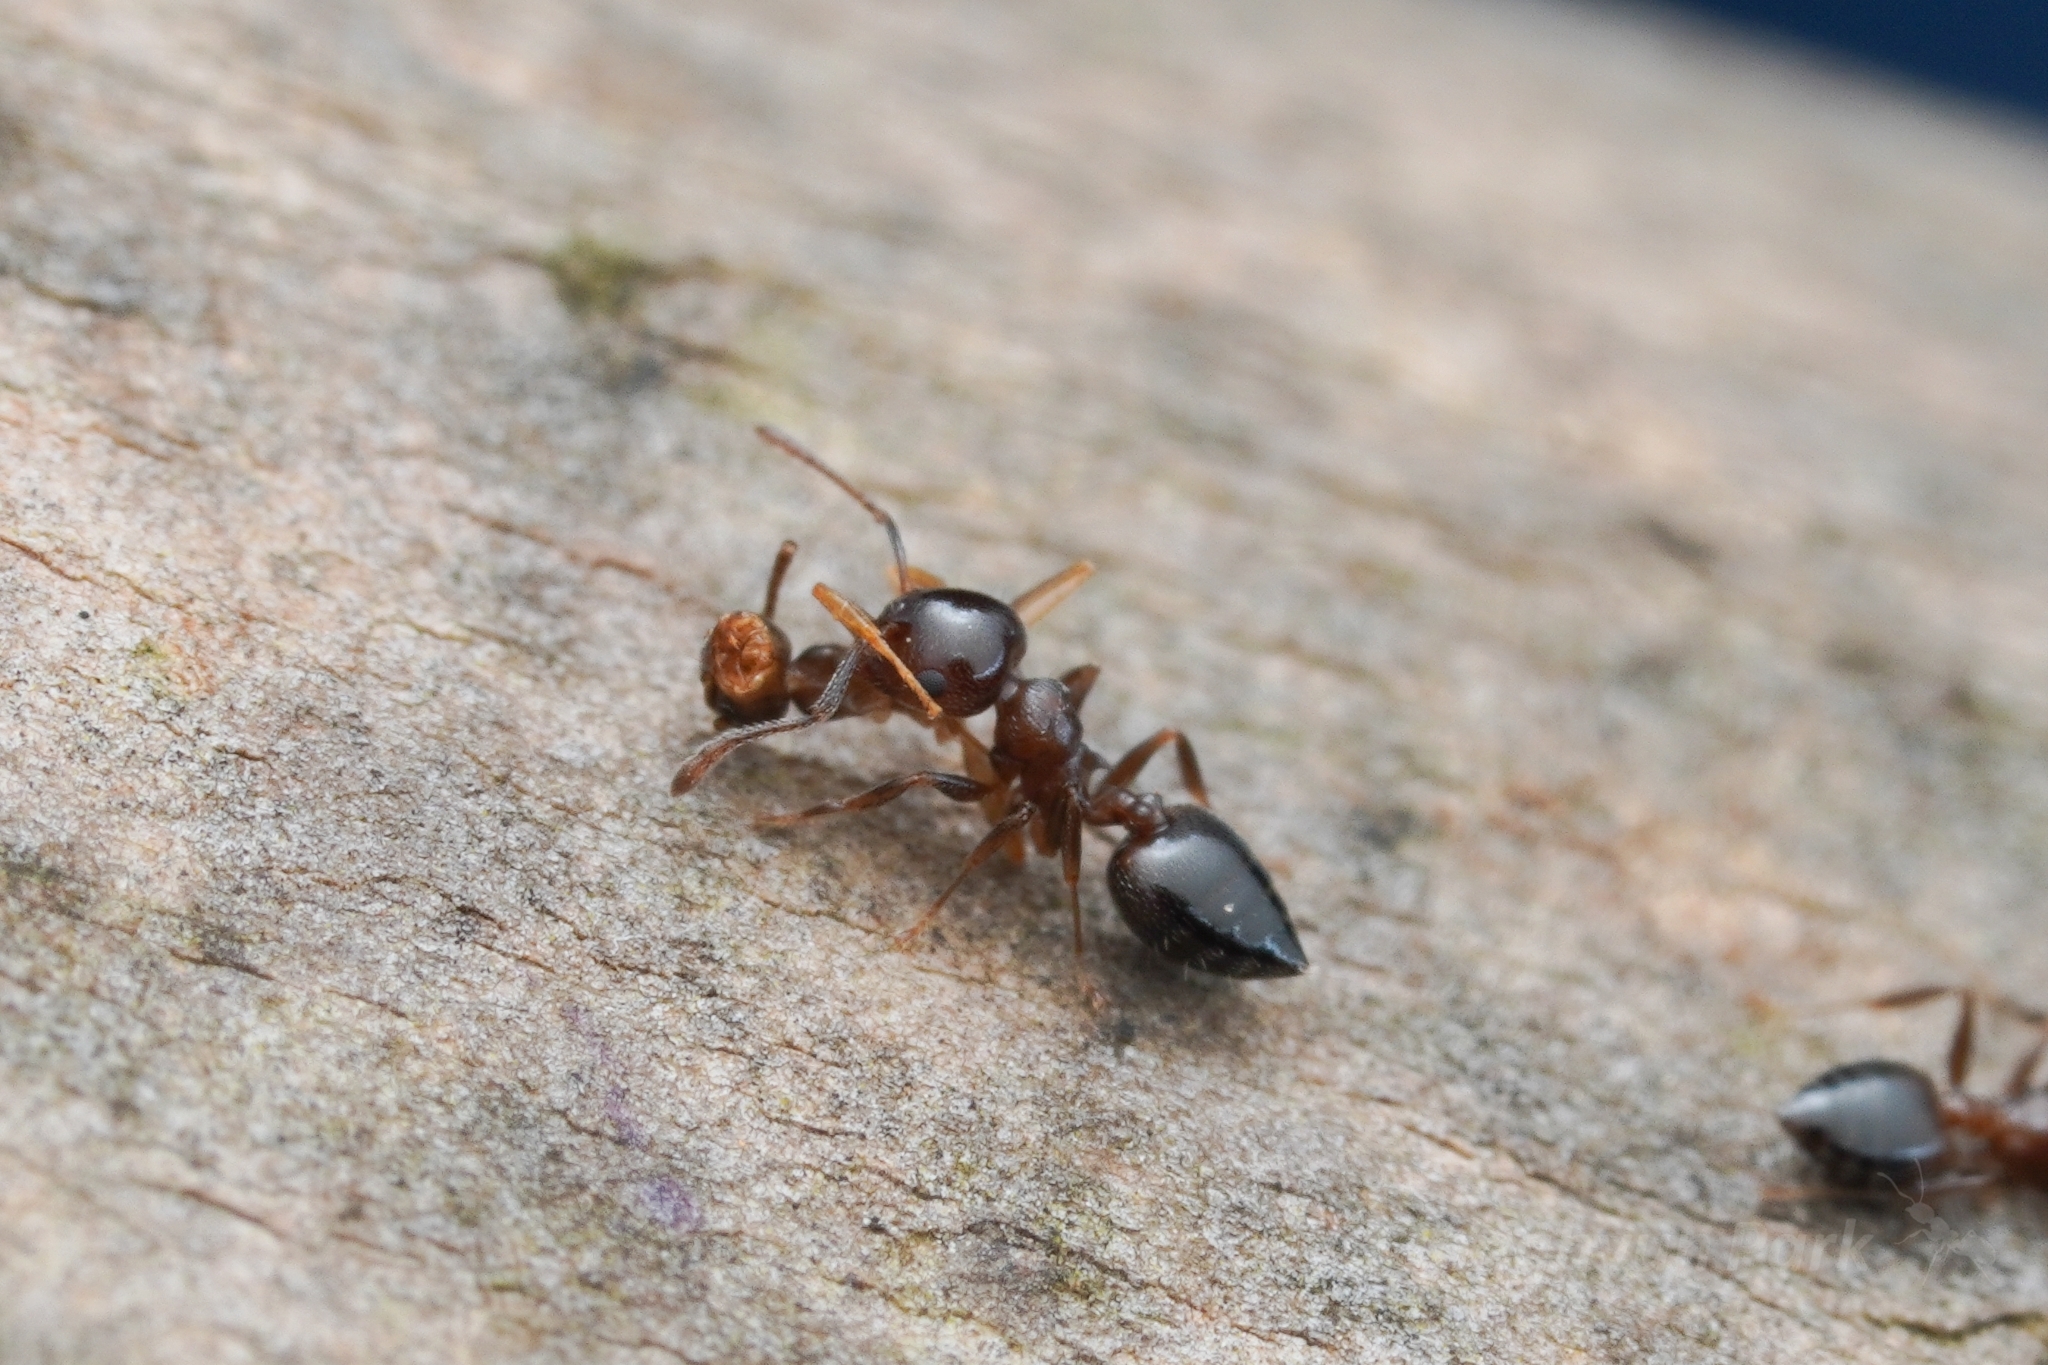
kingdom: Animalia
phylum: Arthropoda
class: Insecta
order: Hymenoptera
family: Formicidae
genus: Crematogaster
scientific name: Crematogaster ashmeadi
